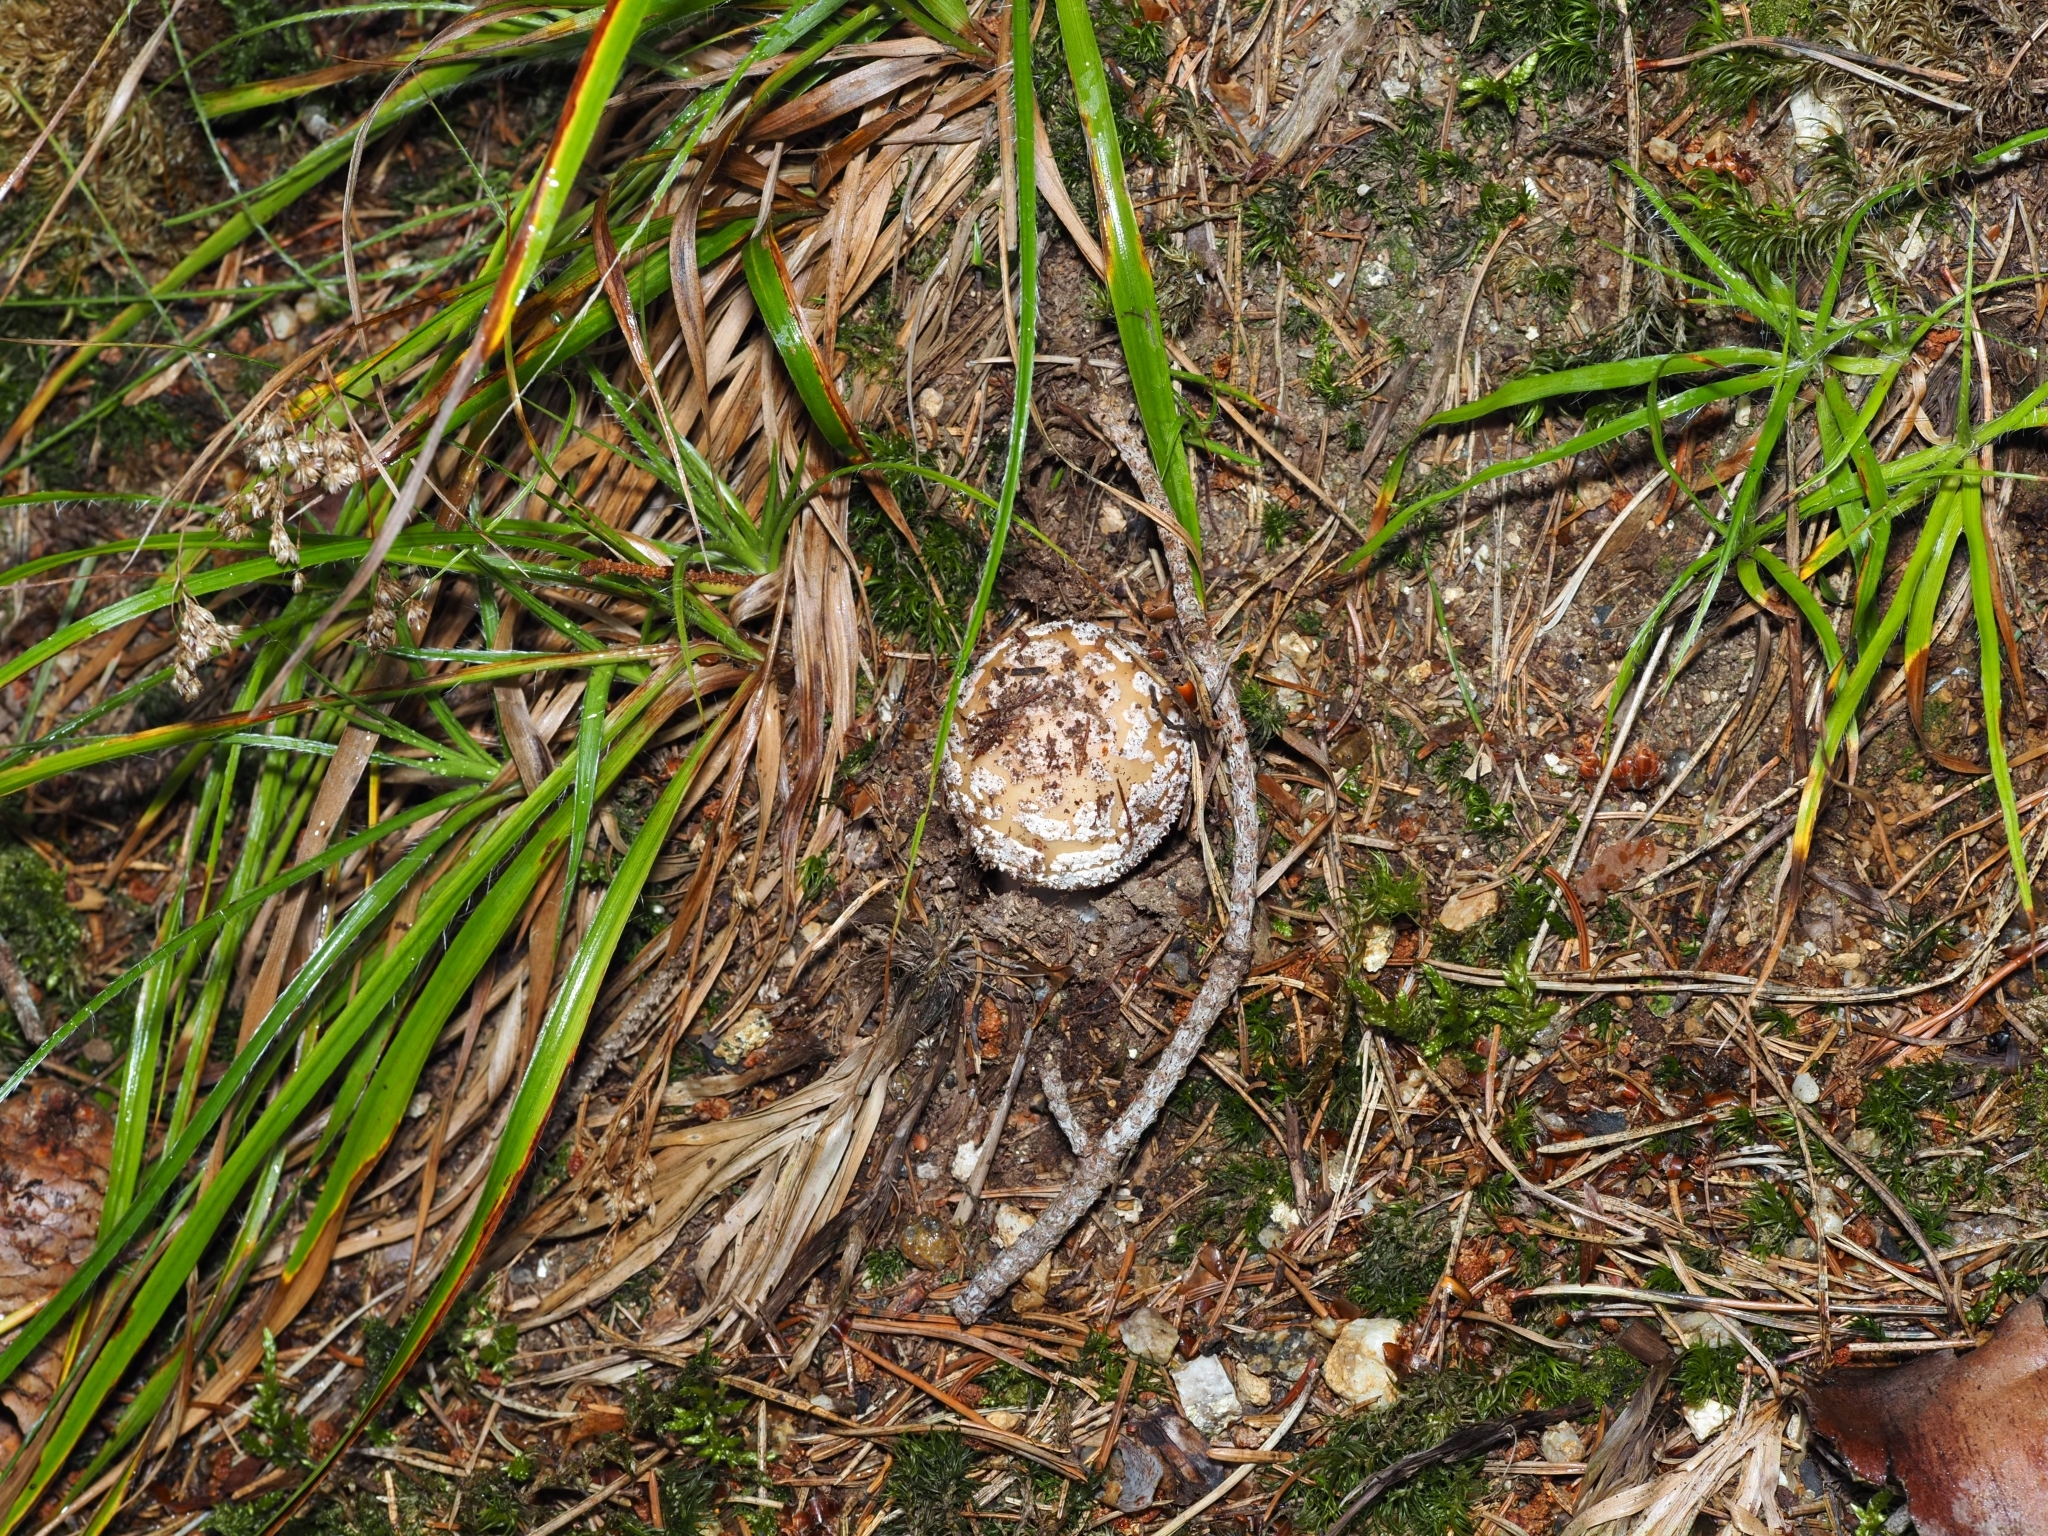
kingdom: Fungi
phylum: Basidiomycota
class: Agaricomycetes
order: Agaricales
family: Amanitaceae
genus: Amanita
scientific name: Amanita gemmata
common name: Jewelled amanita
